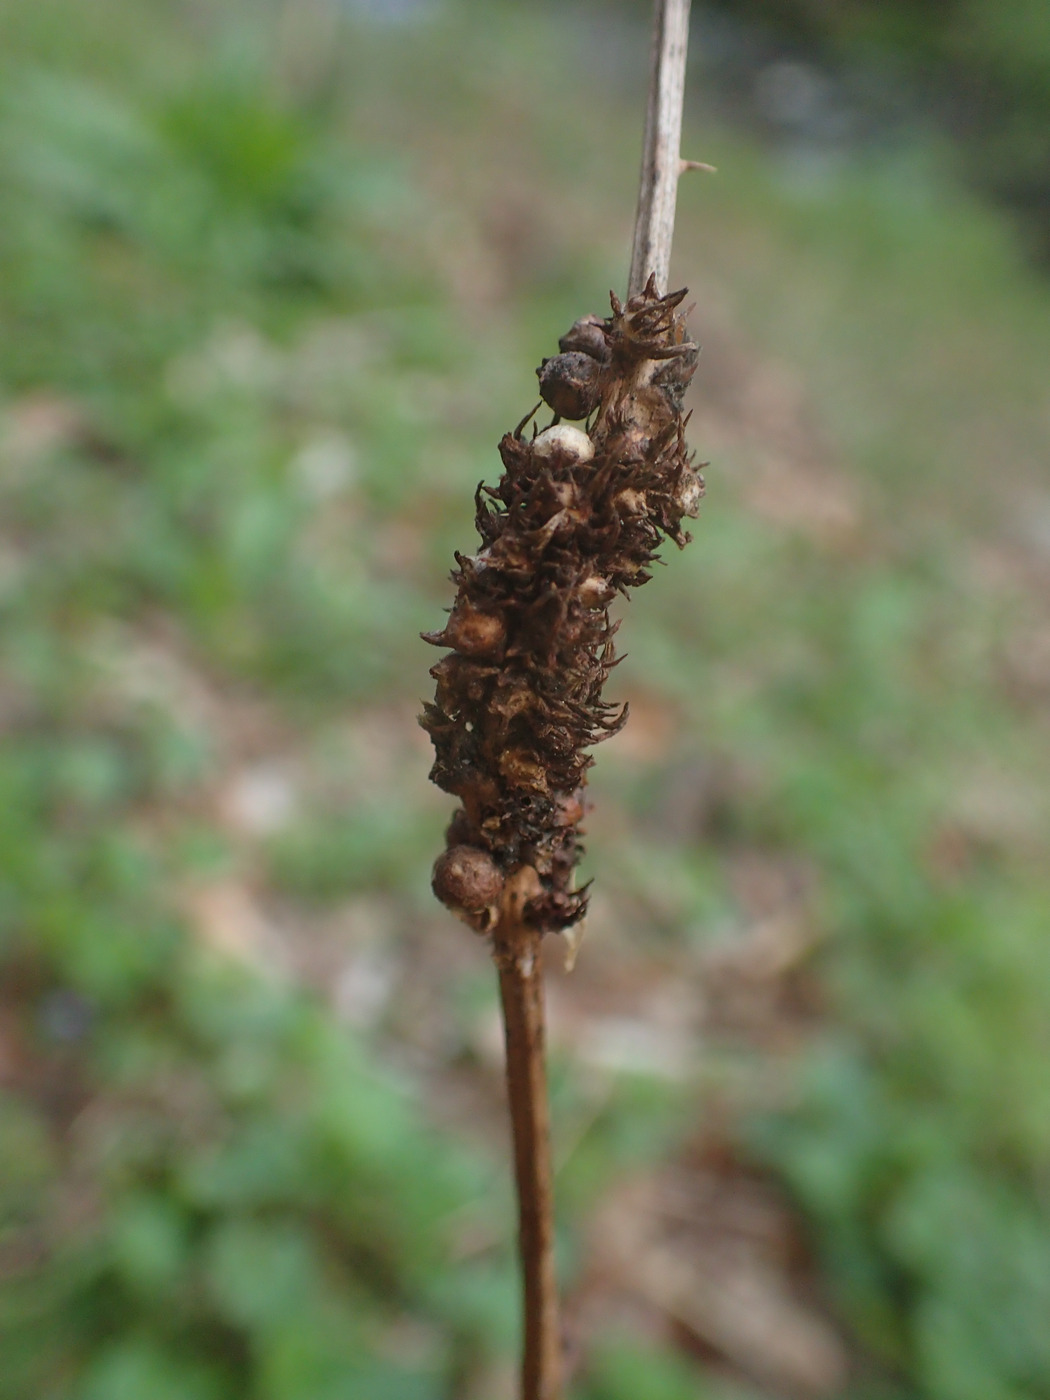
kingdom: Animalia
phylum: Arthropoda
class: Insecta
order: Hymenoptera
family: Cynipidae
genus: Diastrophus
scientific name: Diastrophus
